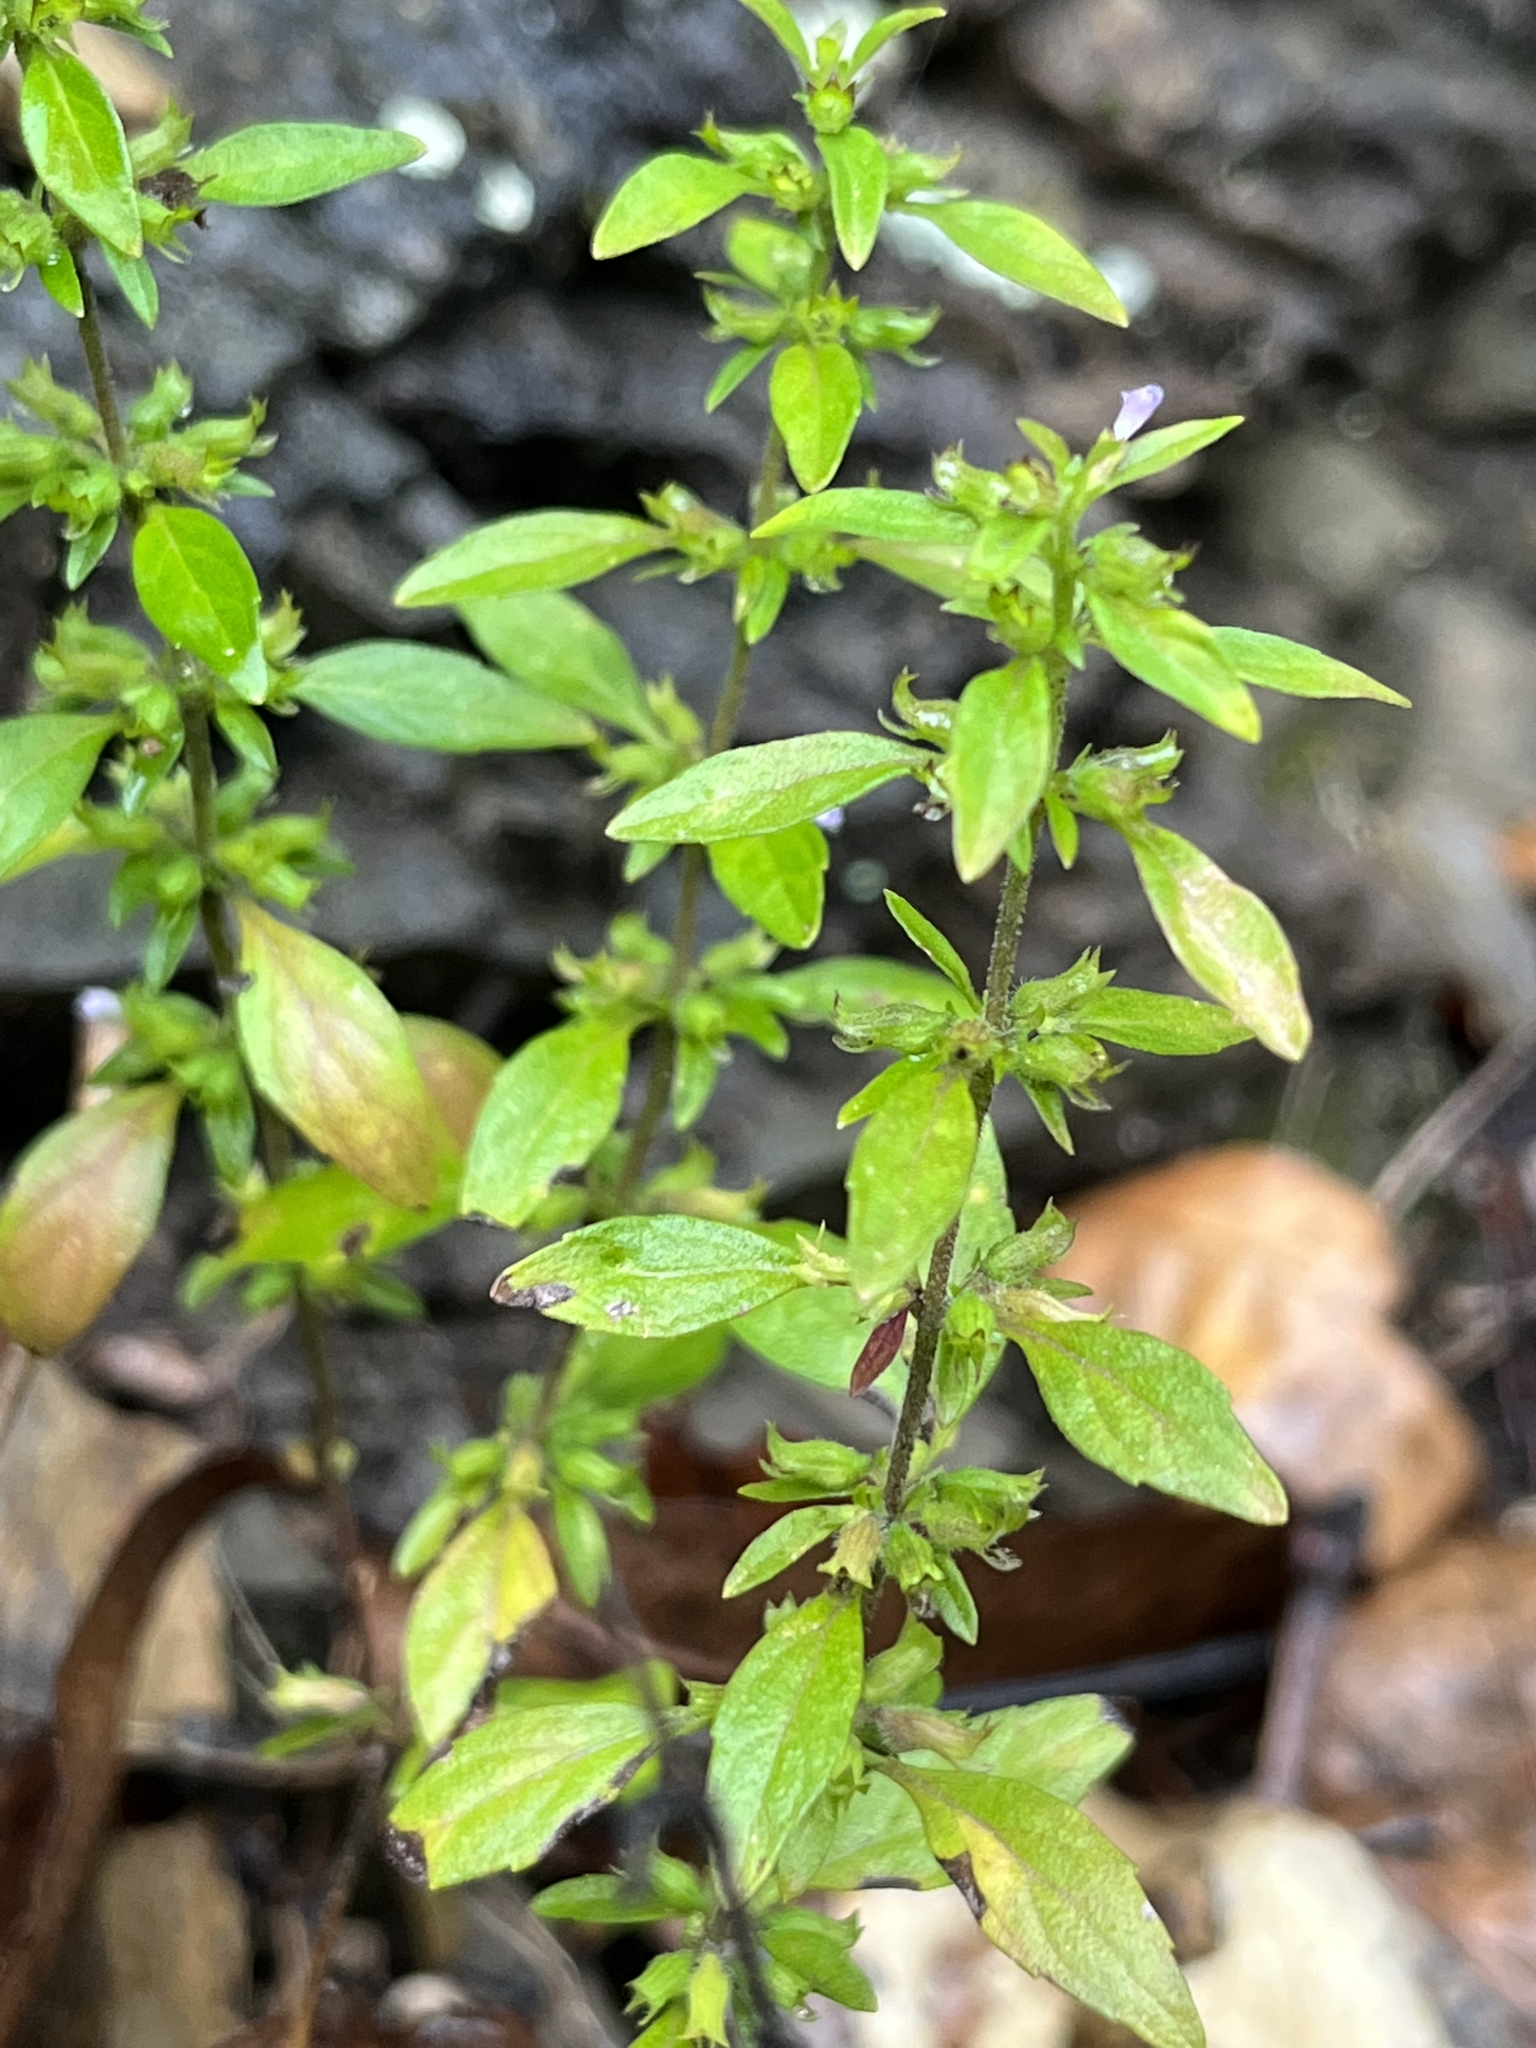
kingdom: Plantae
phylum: Tracheophyta
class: Magnoliopsida
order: Lamiales
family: Lamiaceae
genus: Hedeoma
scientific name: Hedeoma pulegioides
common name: American false pennyroyal
